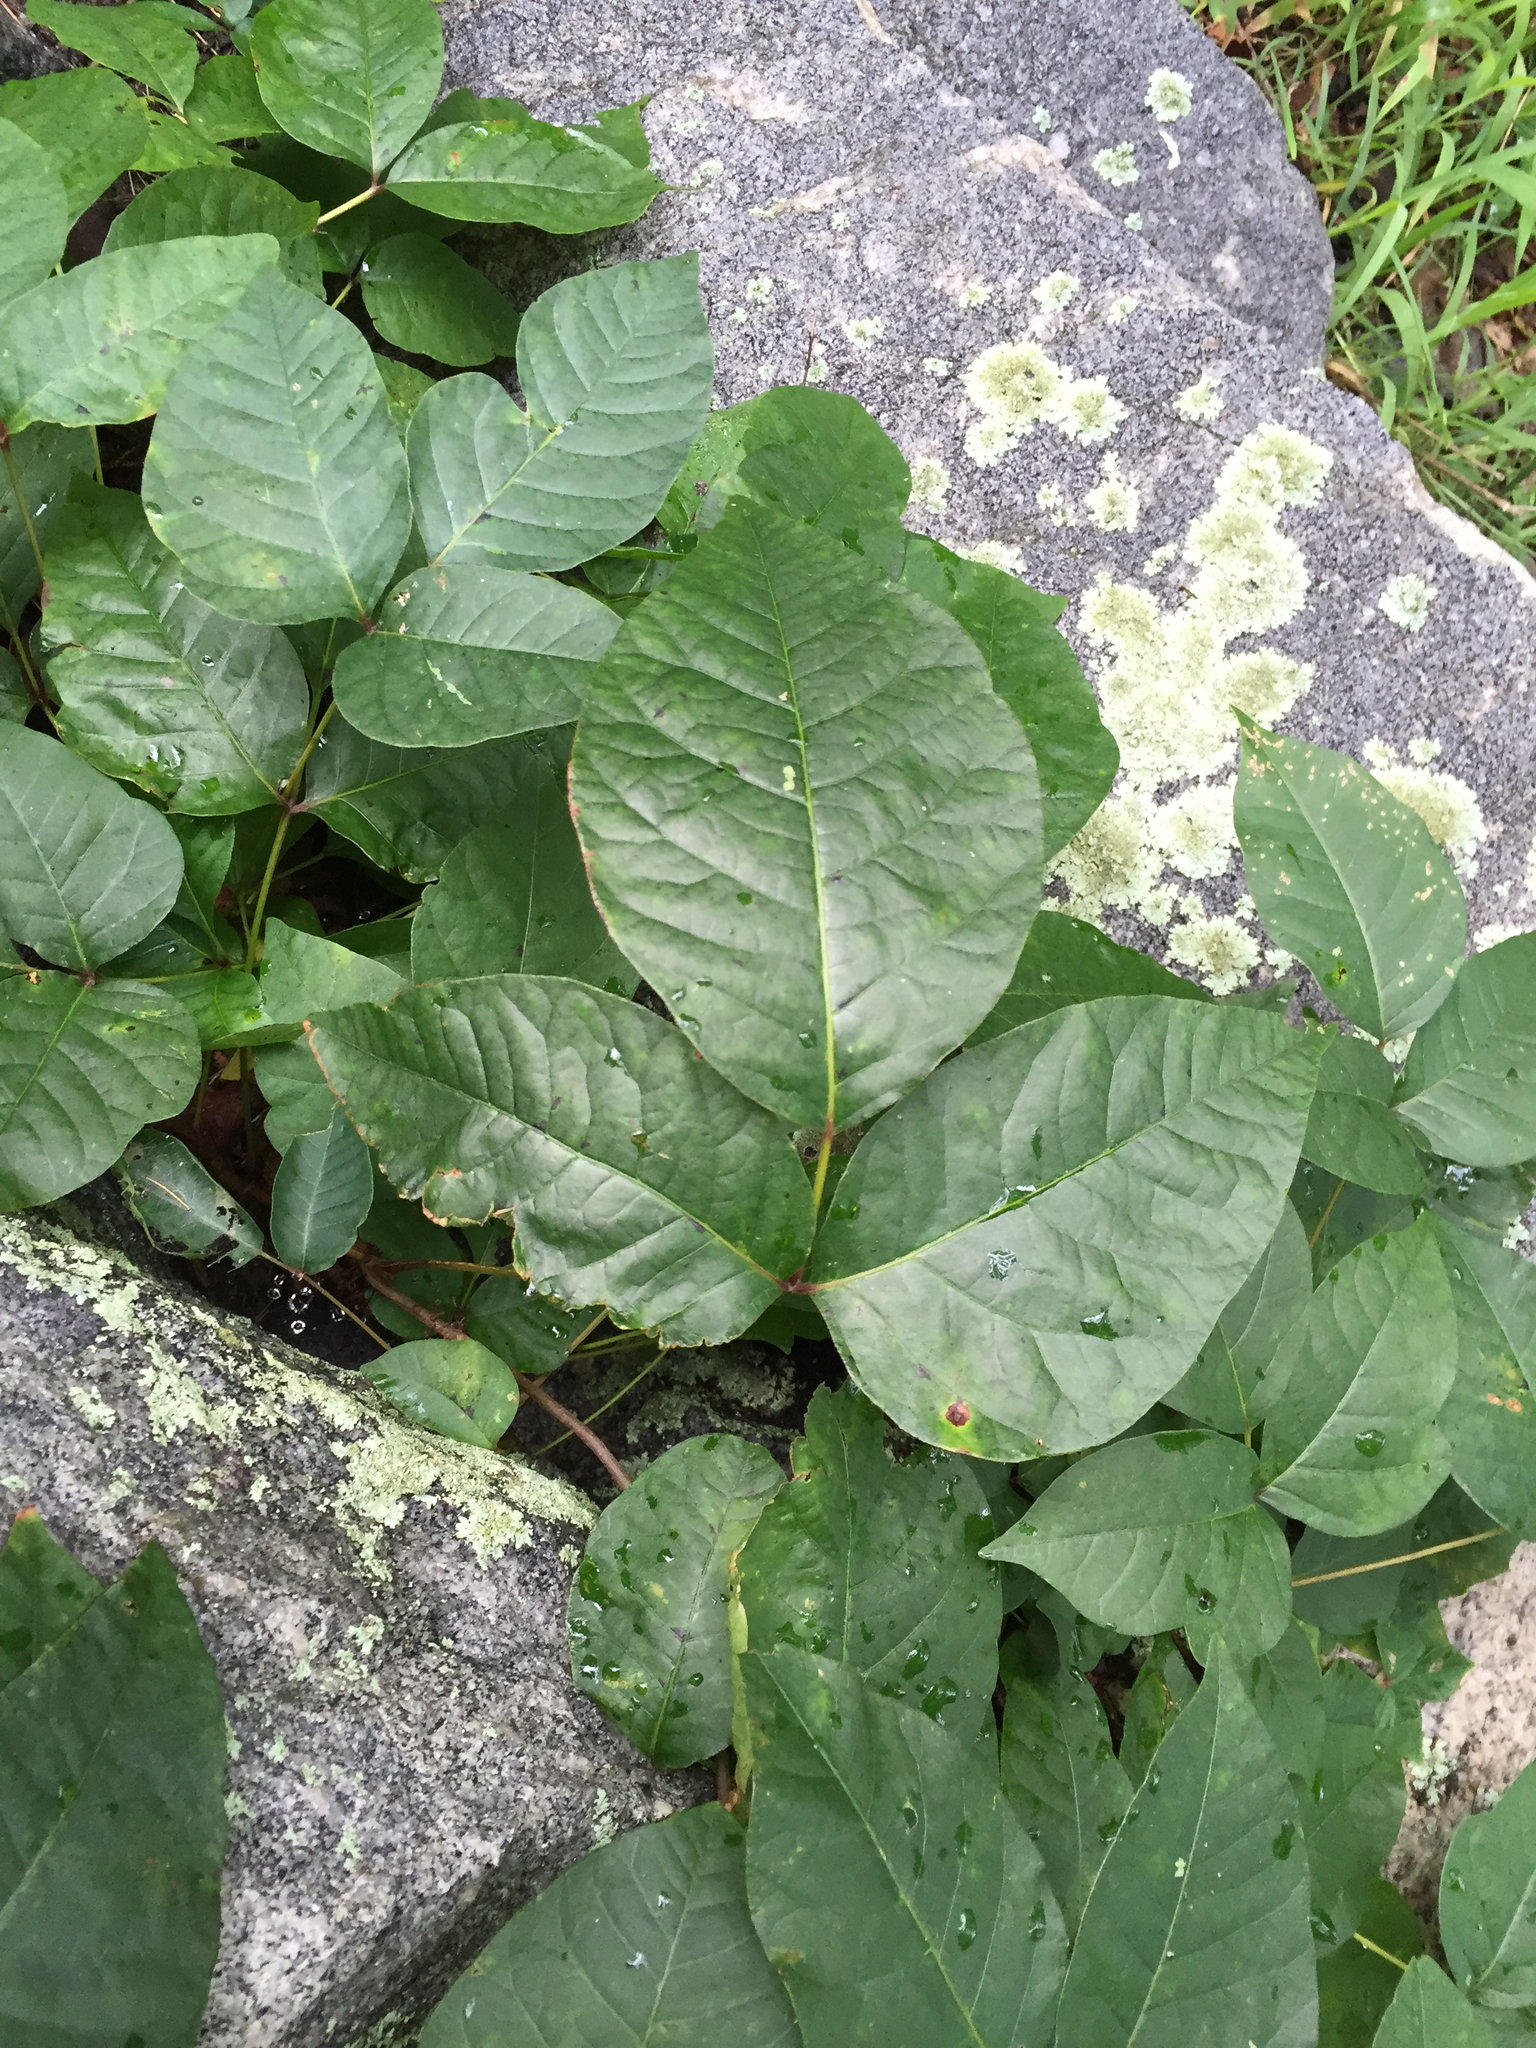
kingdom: Plantae
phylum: Tracheophyta
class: Magnoliopsida
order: Sapindales
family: Anacardiaceae
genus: Toxicodendron
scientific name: Toxicodendron radicans
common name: Poison ivy
